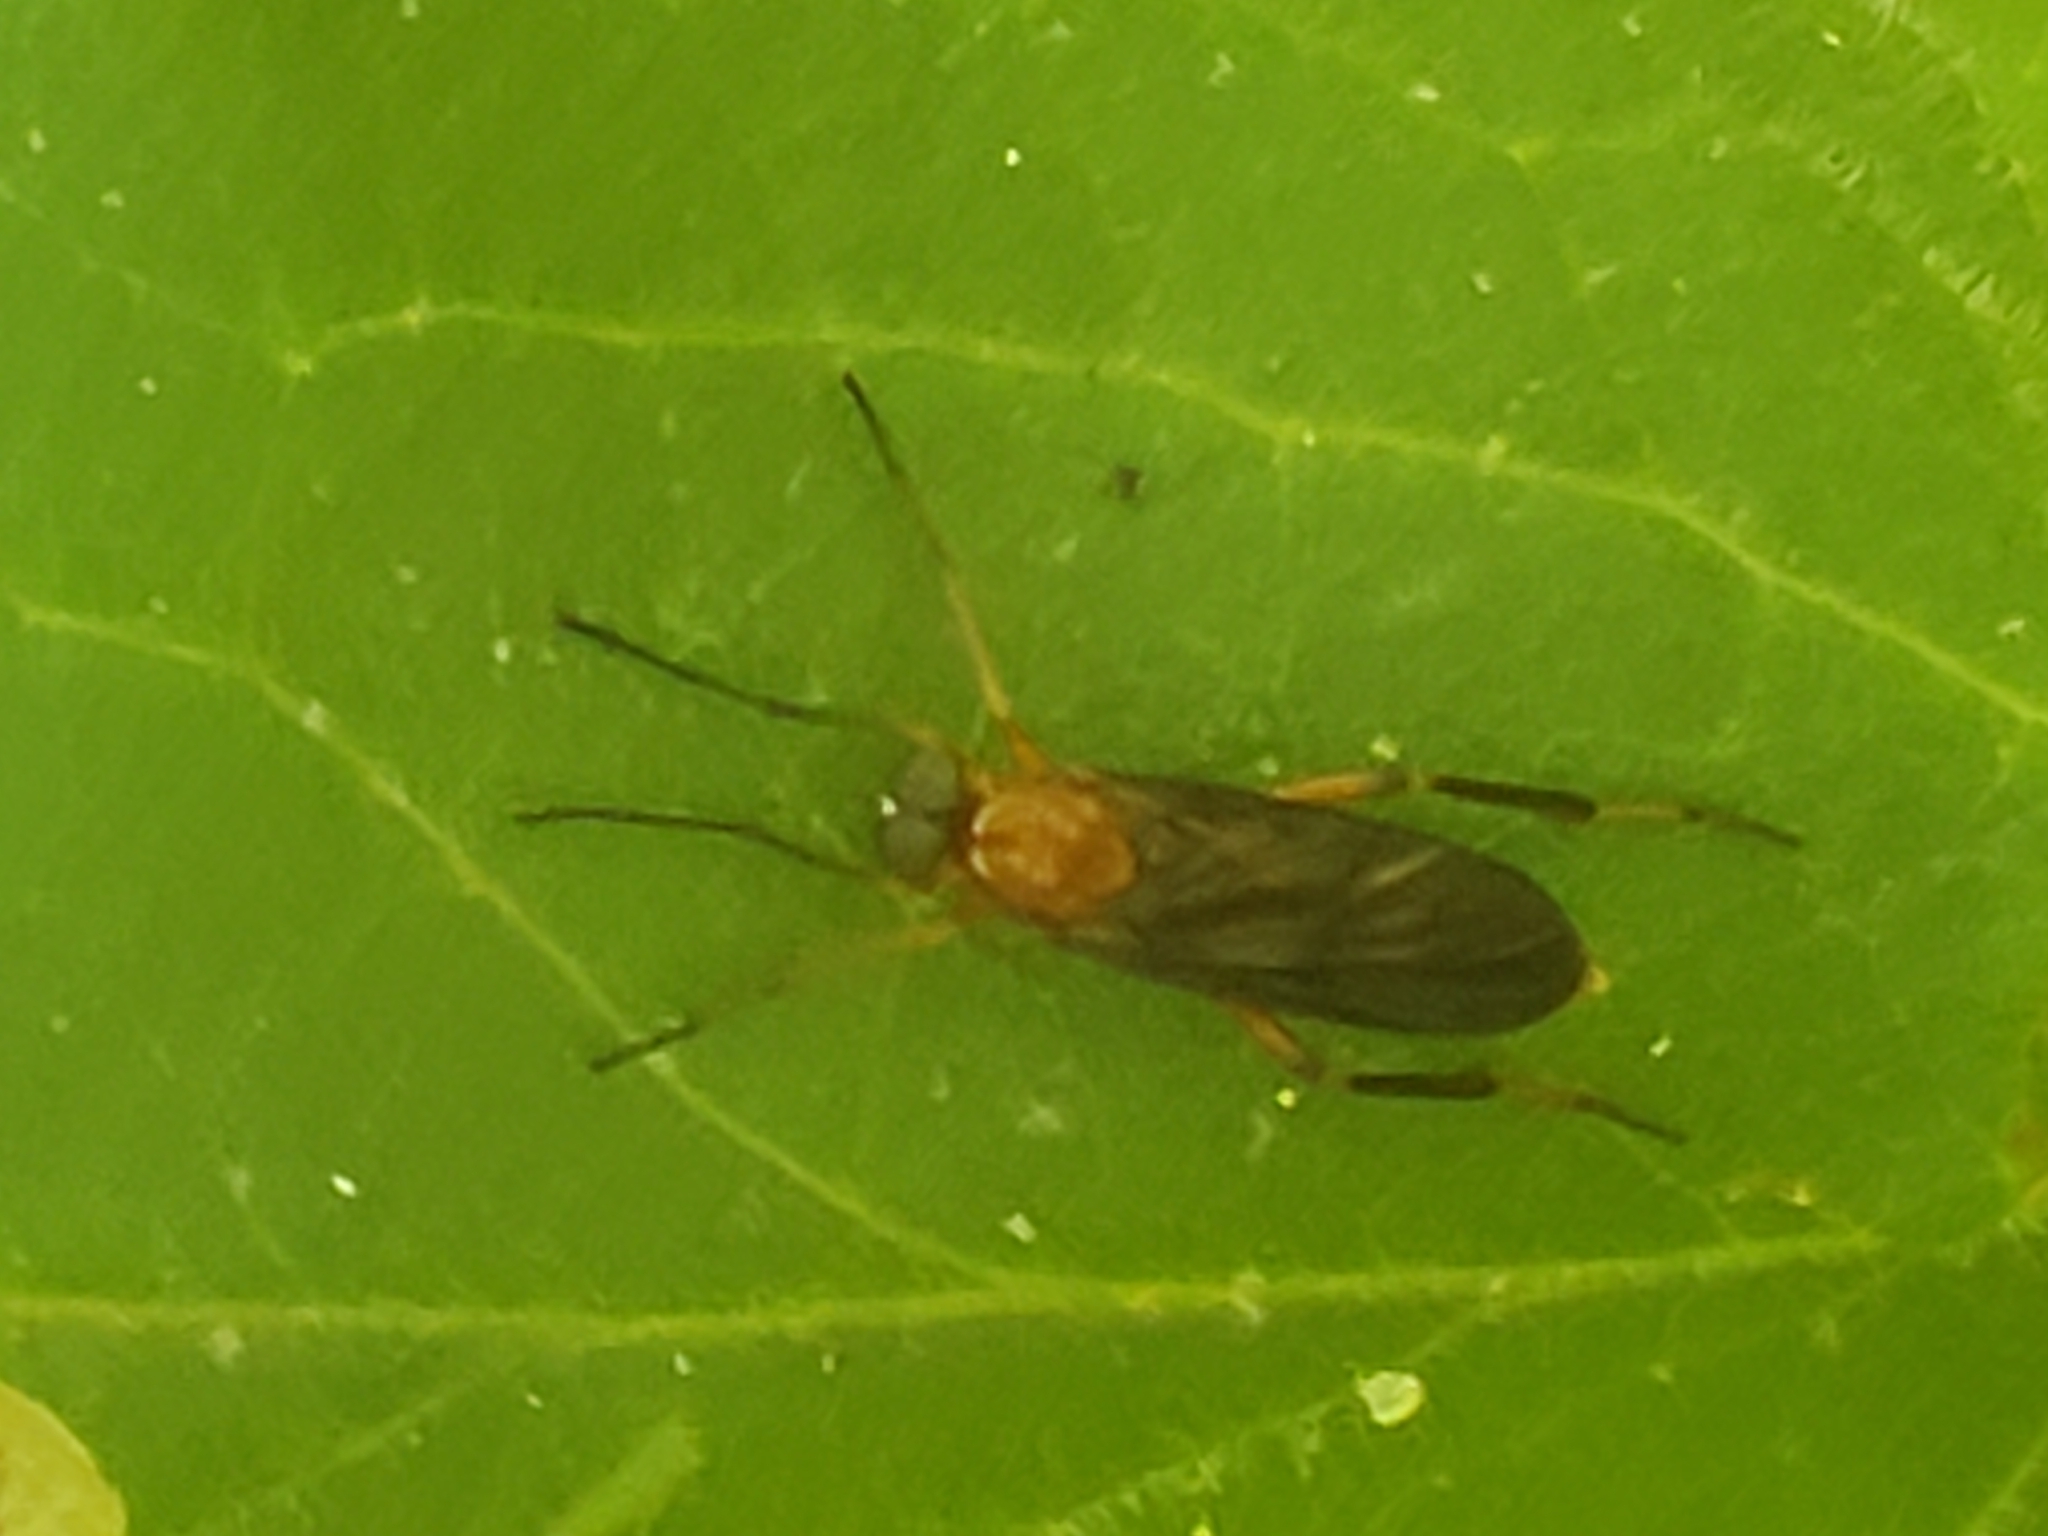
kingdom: Animalia
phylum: Arthropoda
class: Insecta
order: Diptera
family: Xylophagidae
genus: Dialysis
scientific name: Dialysis
